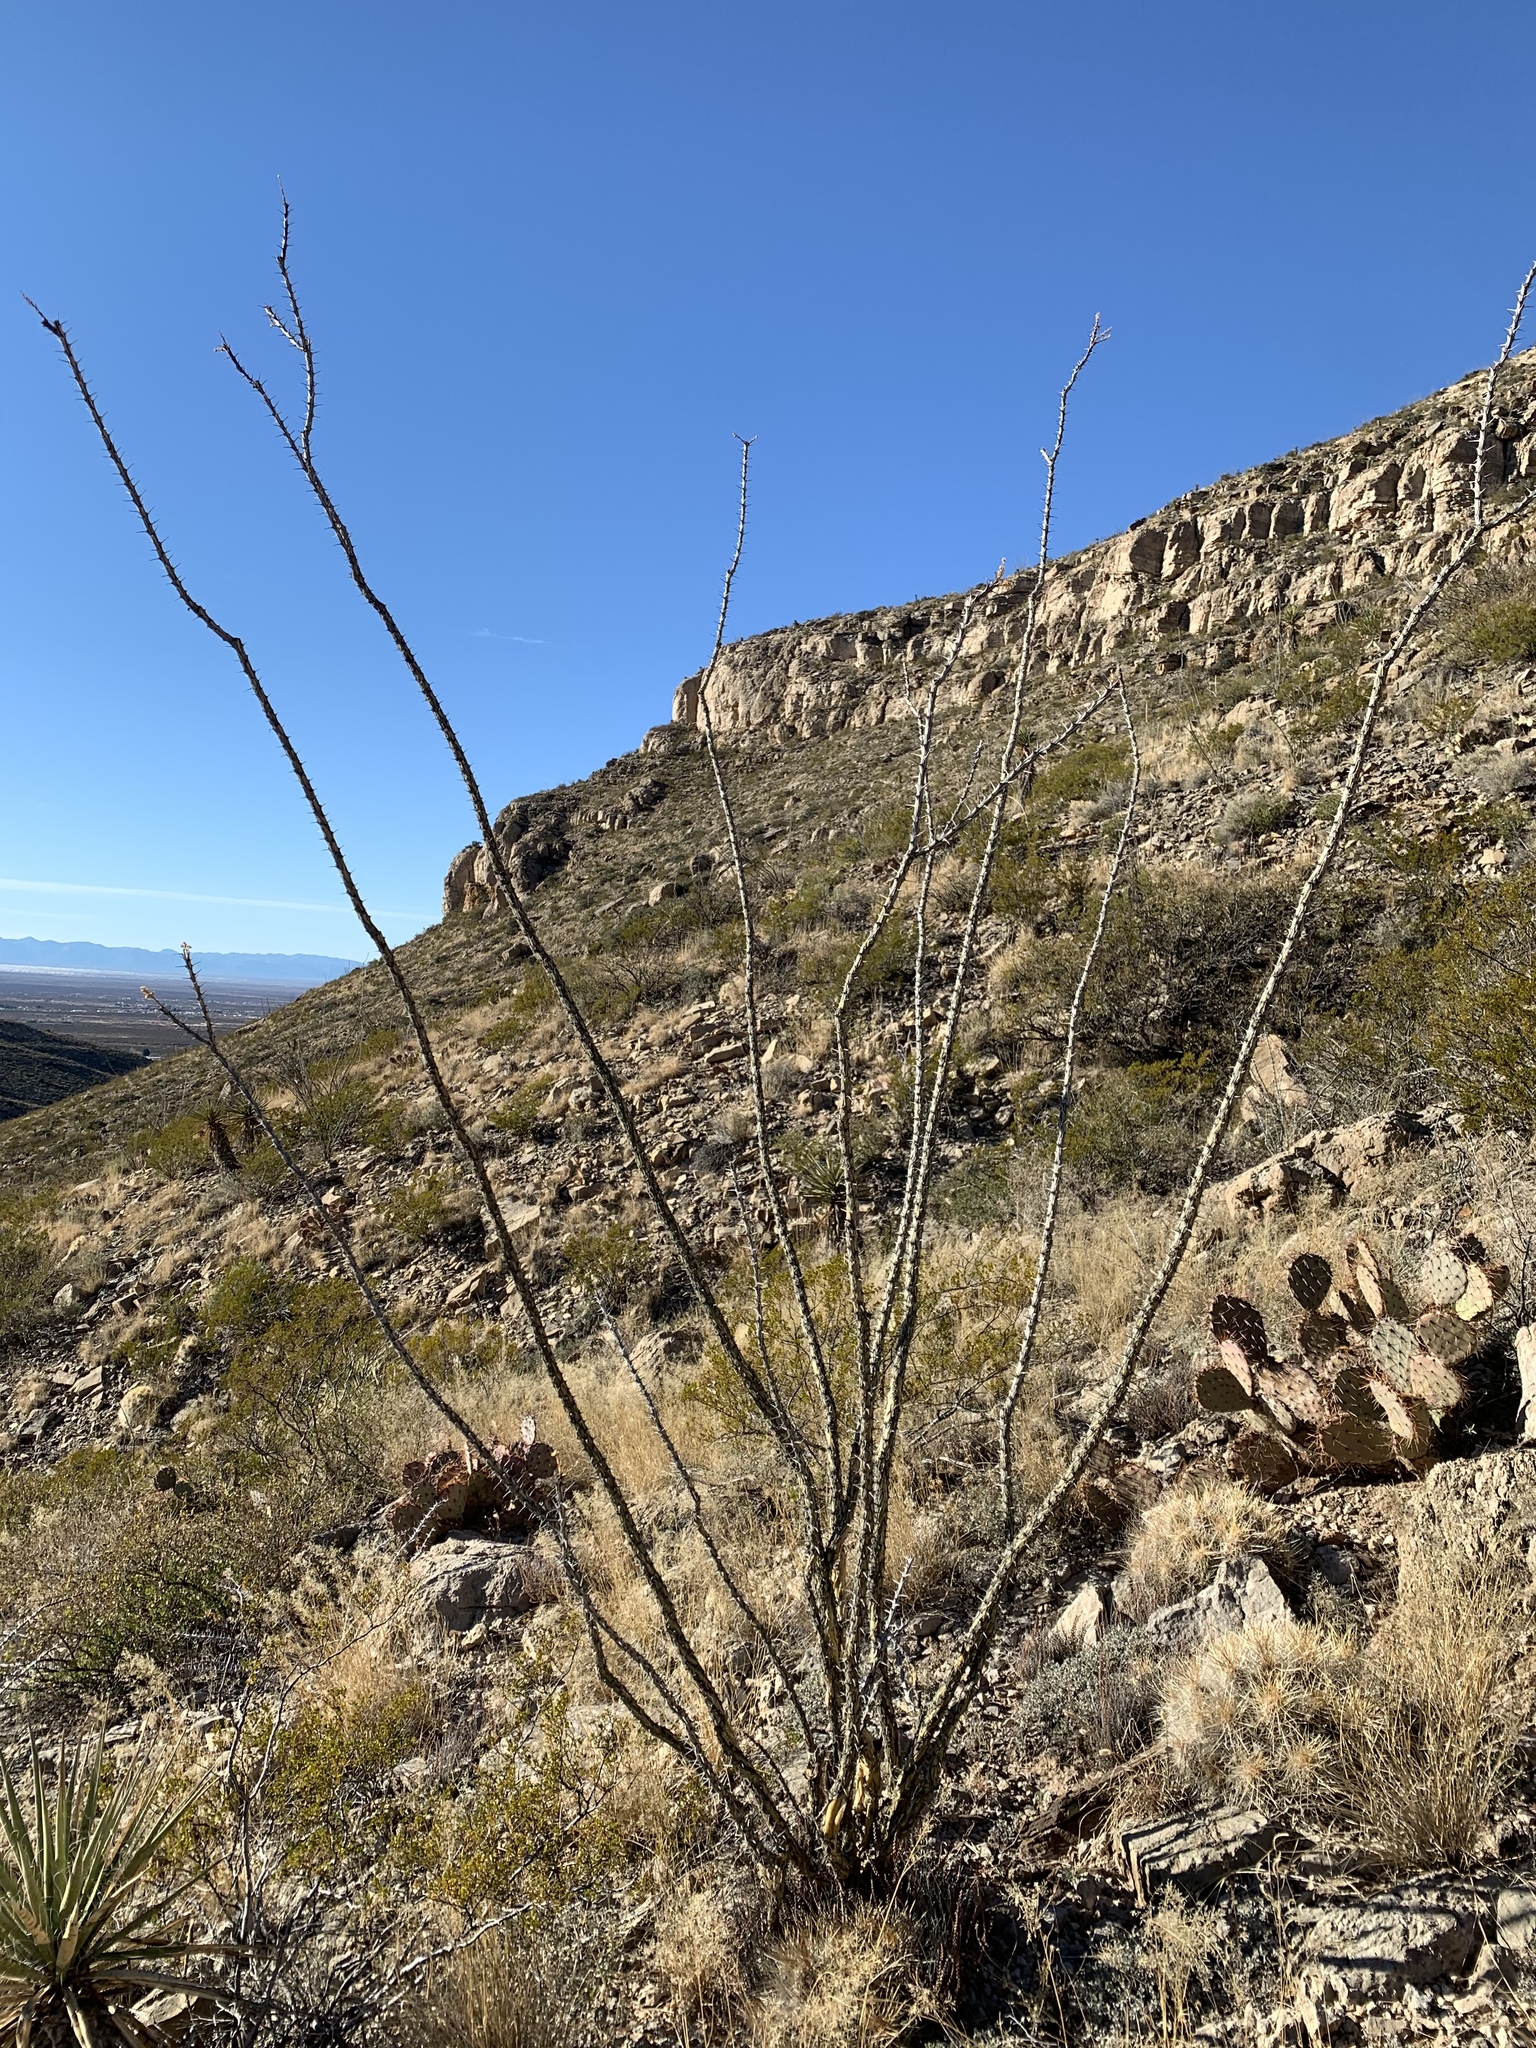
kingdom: Plantae
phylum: Tracheophyta
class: Magnoliopsida
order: Ericales
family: Fouquieriaceae
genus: Fouquieria
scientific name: Fouquieria splendens
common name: Vine-cactus
